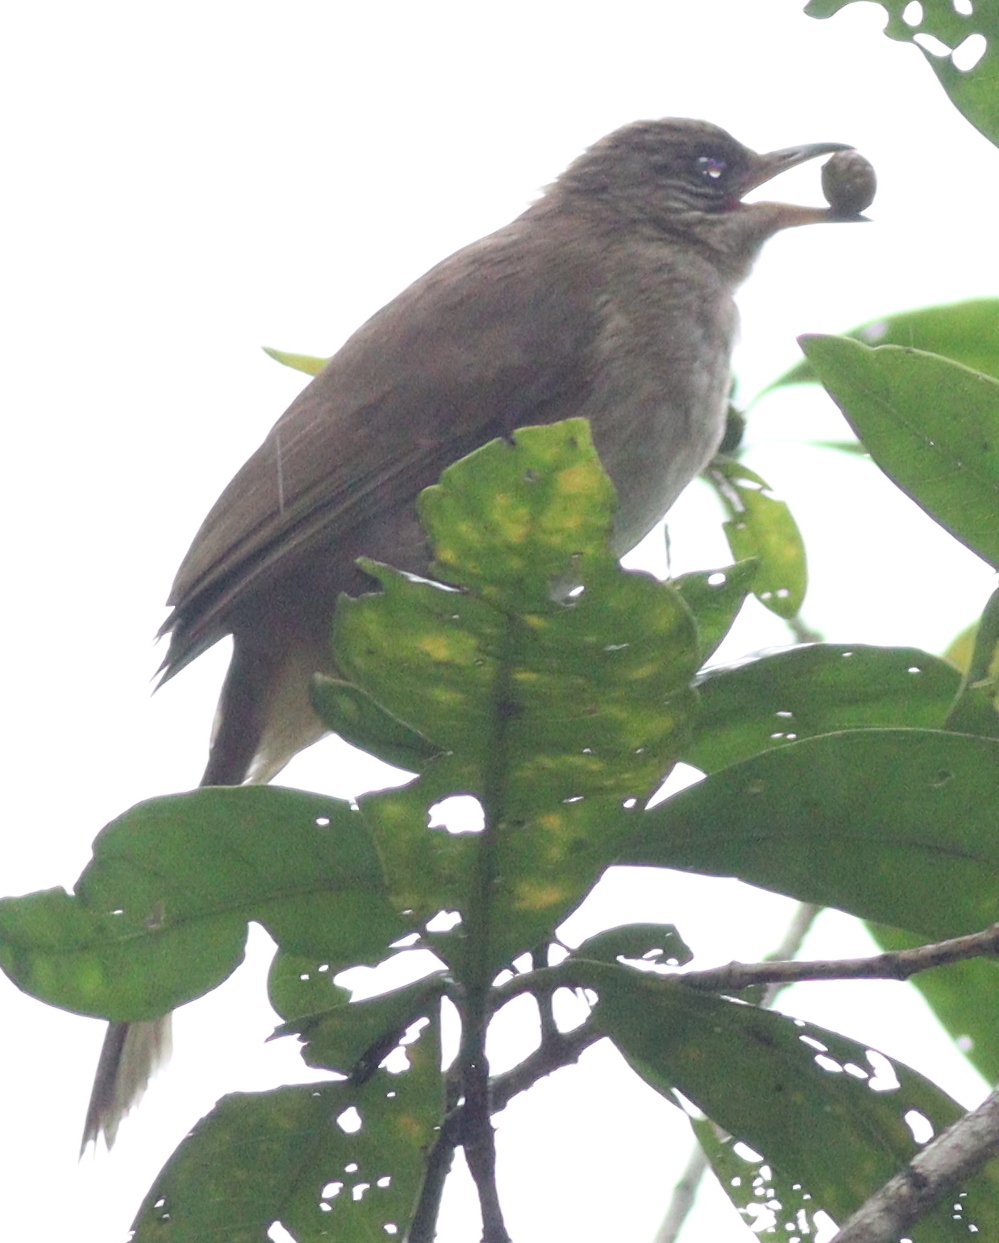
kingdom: Animalia
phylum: Chordata
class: Aves
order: Passeriformes
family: Pycnonotidae
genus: Pycnonotus
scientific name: Pycnonotus blanfordi
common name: Streak-eared bulbul
